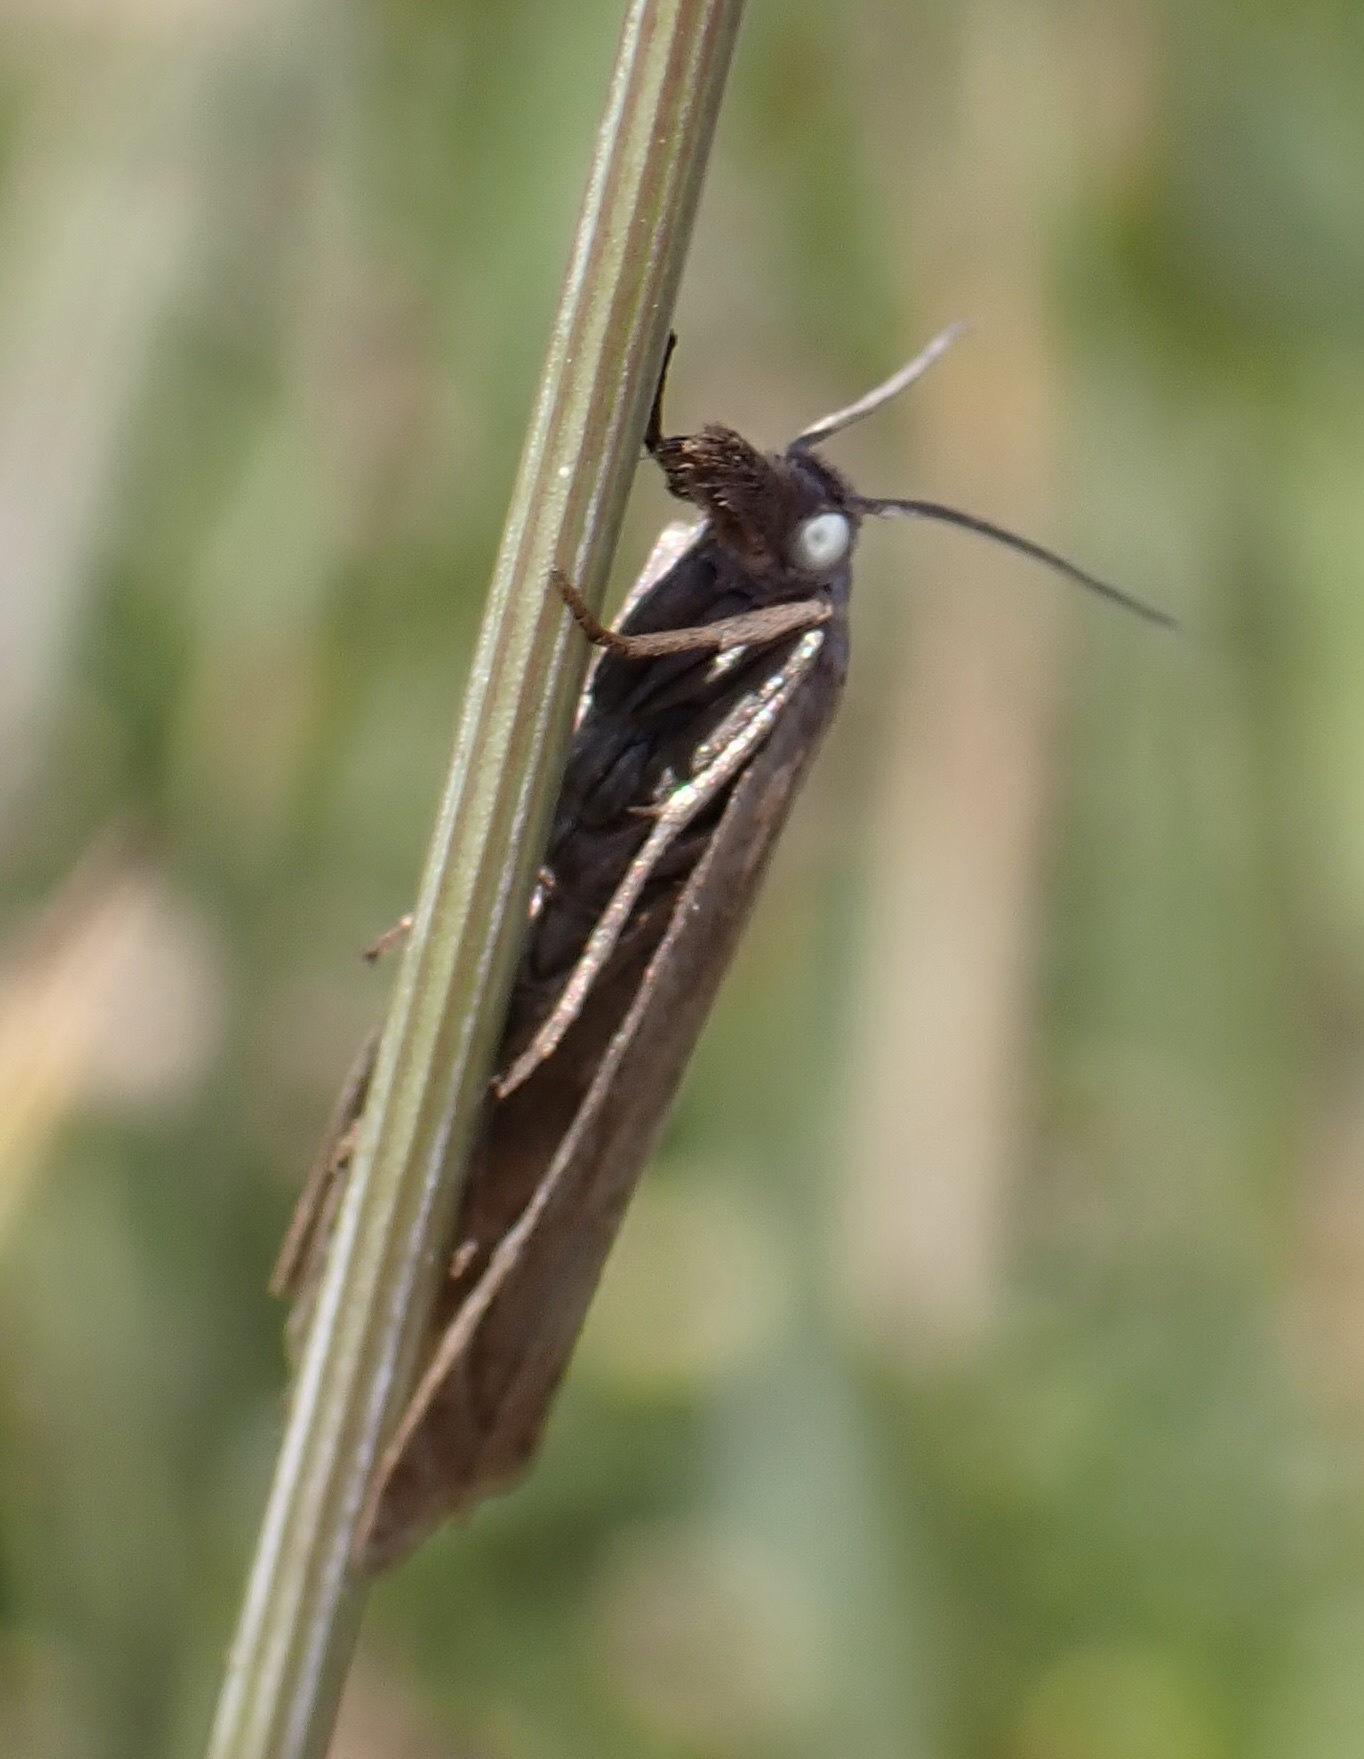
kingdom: Animalia
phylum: Arthropoda
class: Insecta
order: Lepidoptera
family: Crambidae
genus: Chrysoteuchia
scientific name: Chrysoteuchia culmella
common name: Garden grass-veneer
